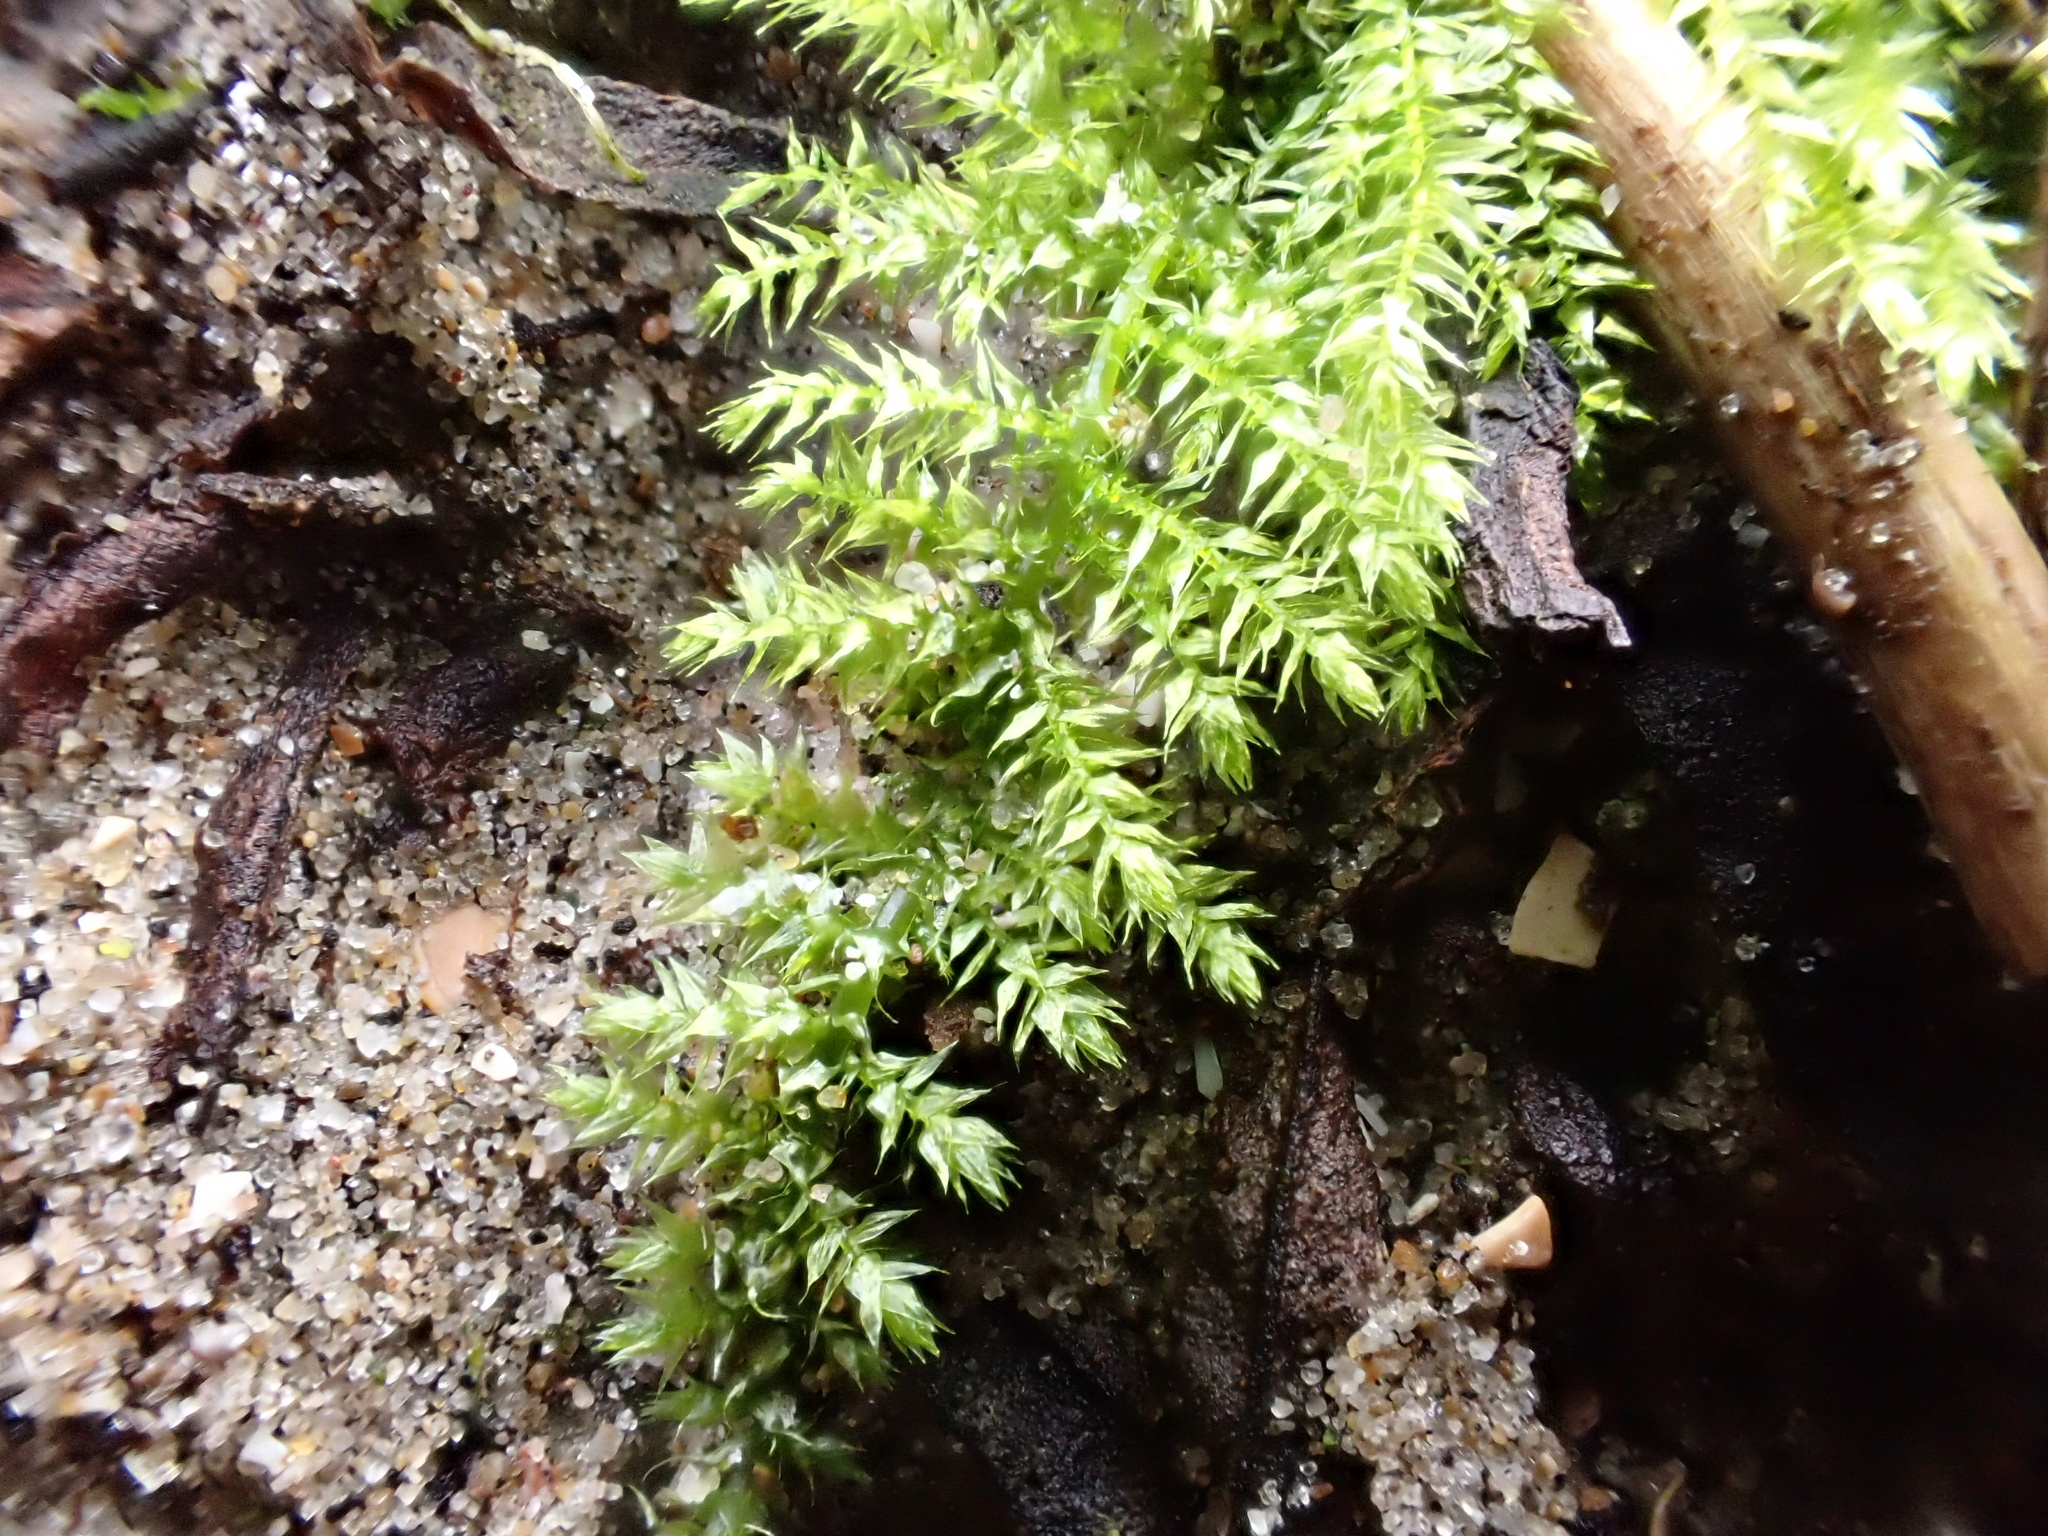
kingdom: Plantae
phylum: Bryophyta
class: Bryopsida
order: Hypnales
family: Brachytheciaceae
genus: Kindbergia
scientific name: Kindbergia praelonga
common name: Slender beaked moss
